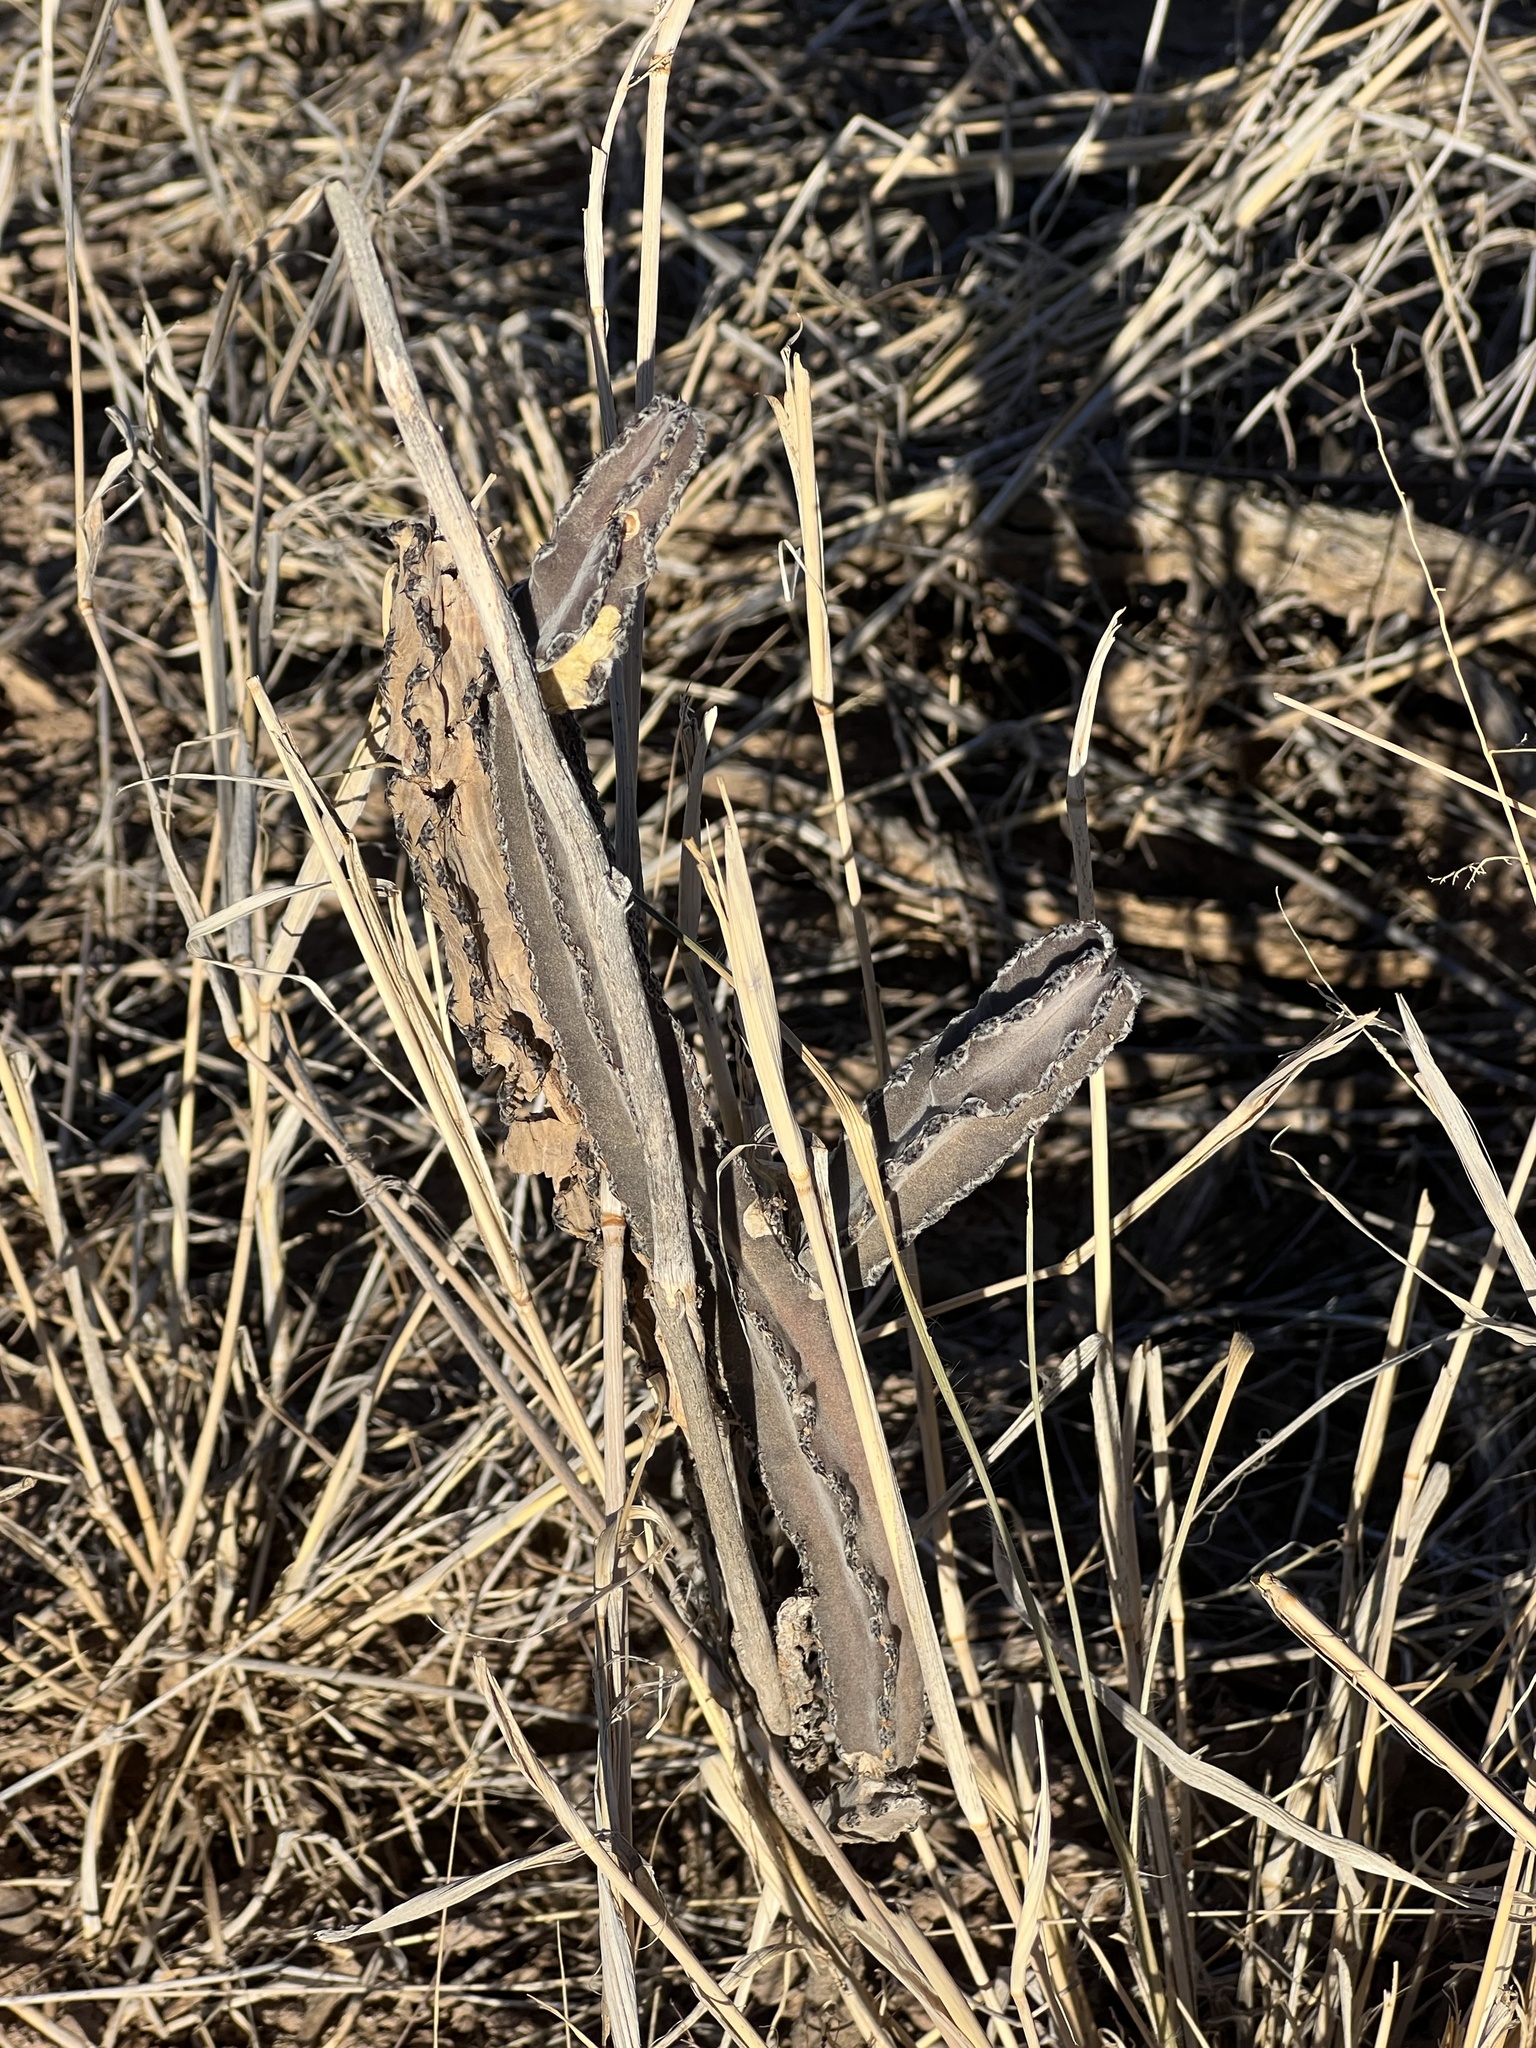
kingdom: Plantae
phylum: Tracheophyta
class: Magnoliopsida
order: Caryophyllales
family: Cactaceae
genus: Peniocereus
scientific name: Peniocereus greggii
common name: Desert night-blooming cereus
